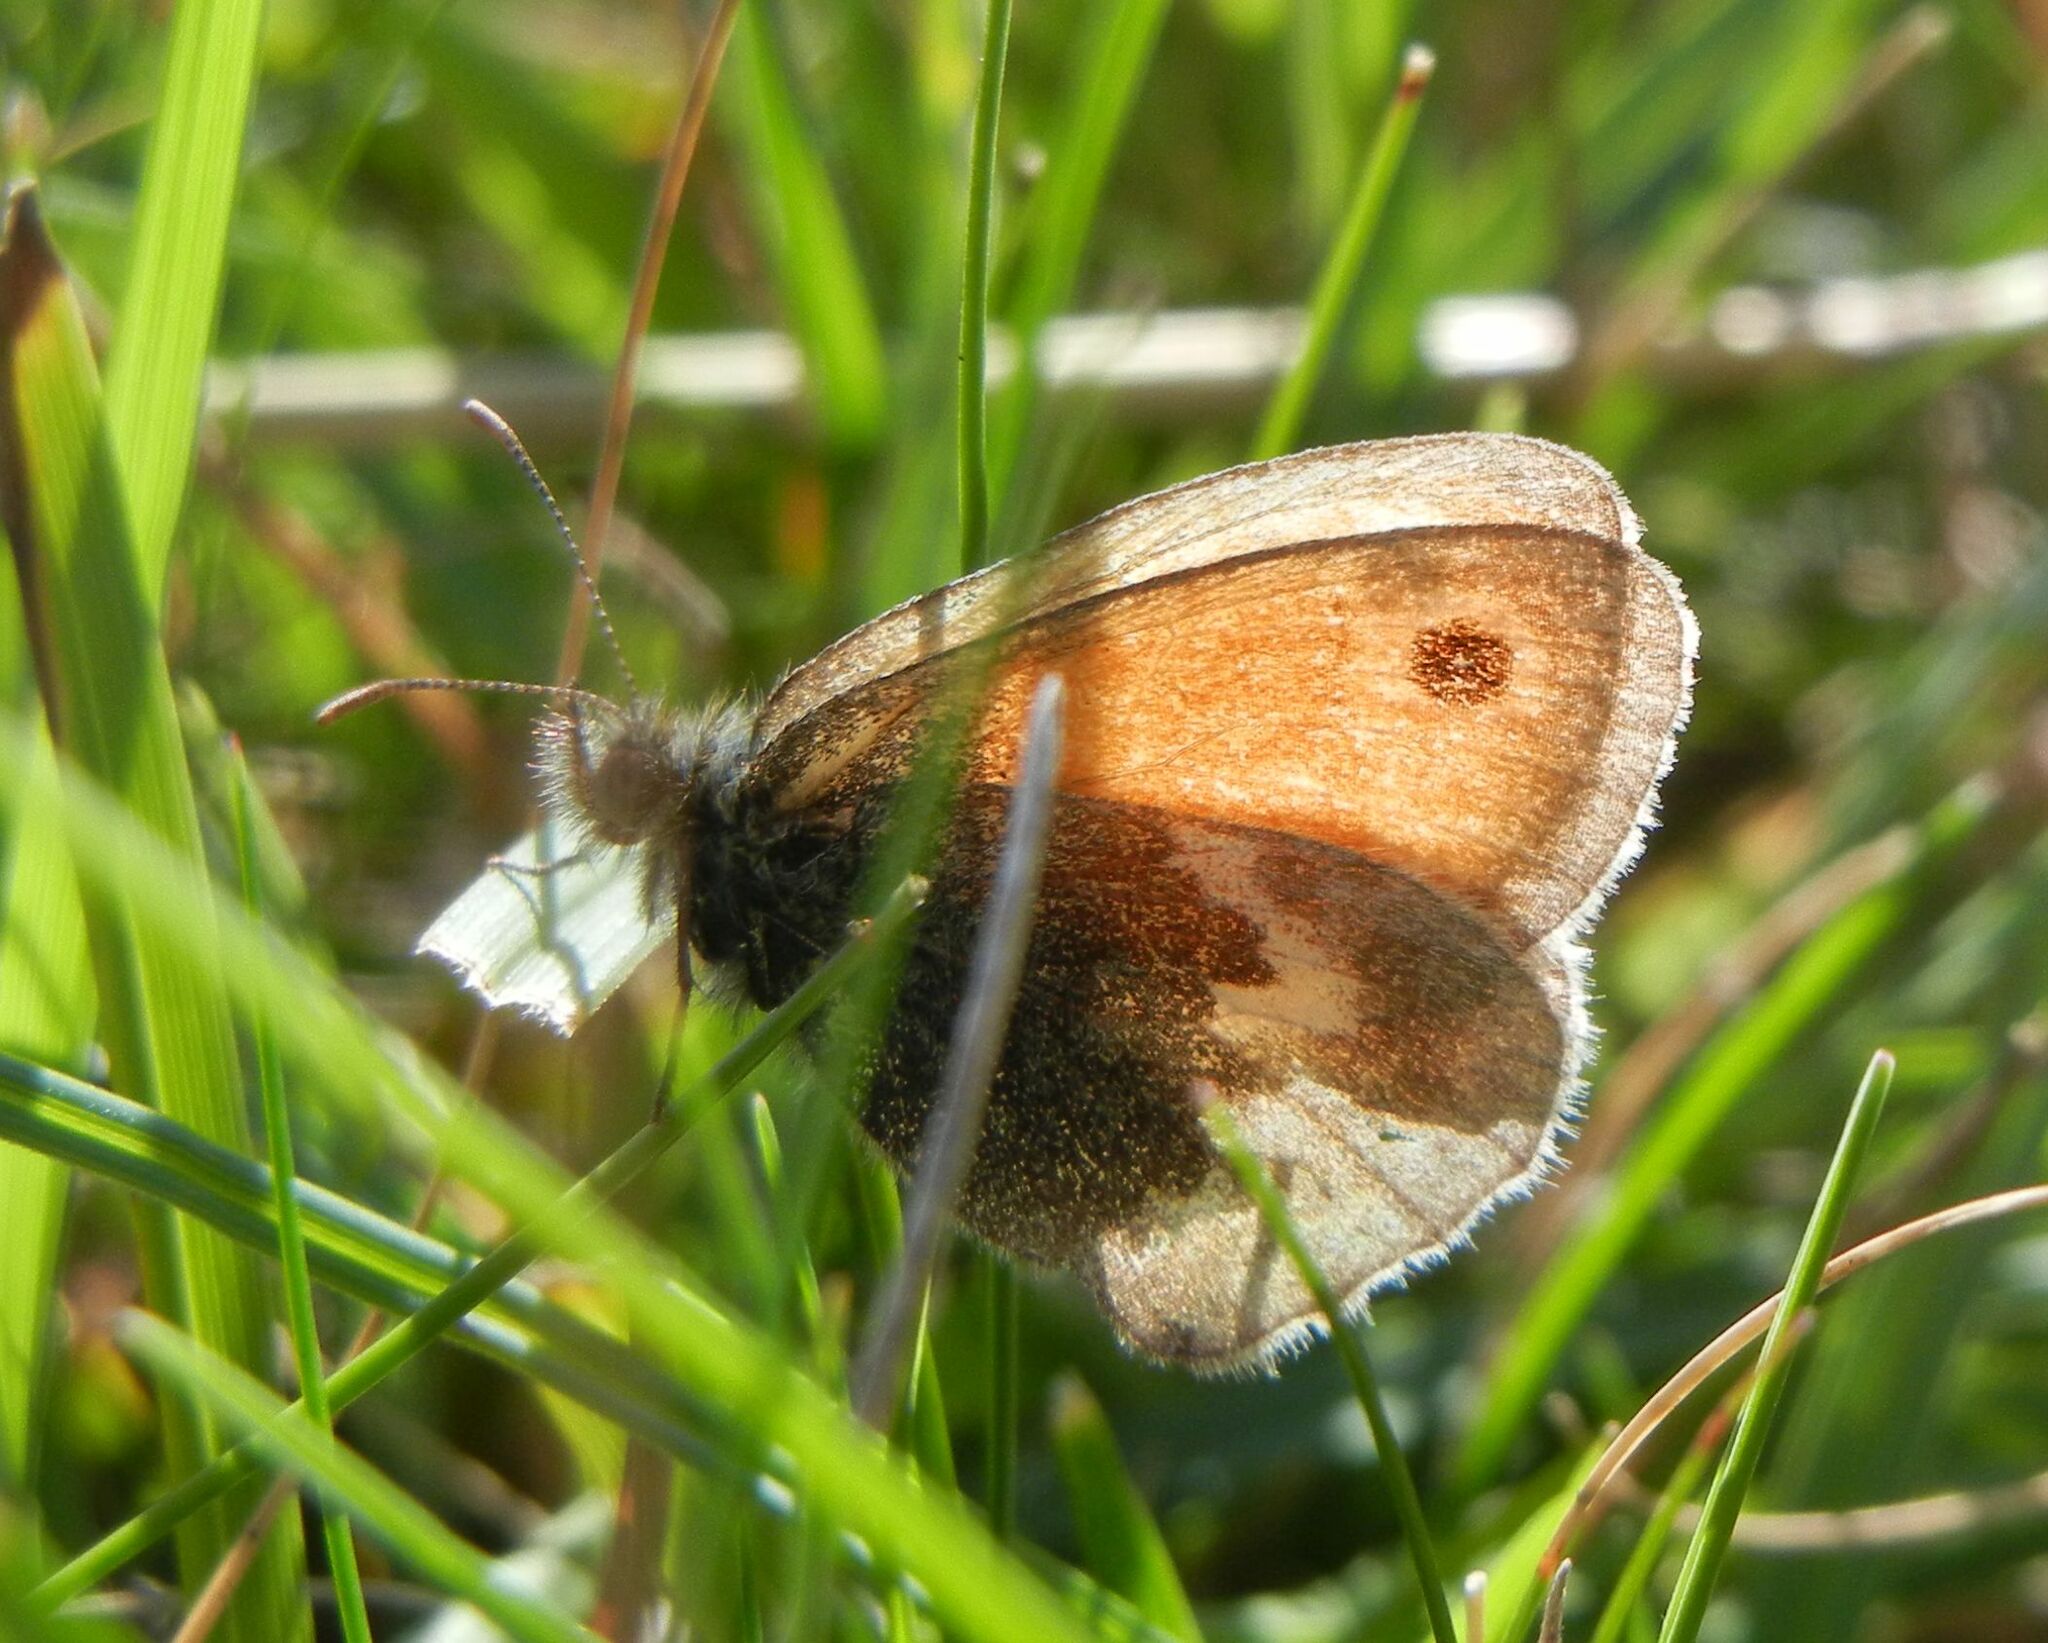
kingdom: Animalia
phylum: Arthropoda
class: Insecta
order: Lepidoptera
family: Nymphalidae
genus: Coenonympha
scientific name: Coenonympha pamphilus
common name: Small heath
